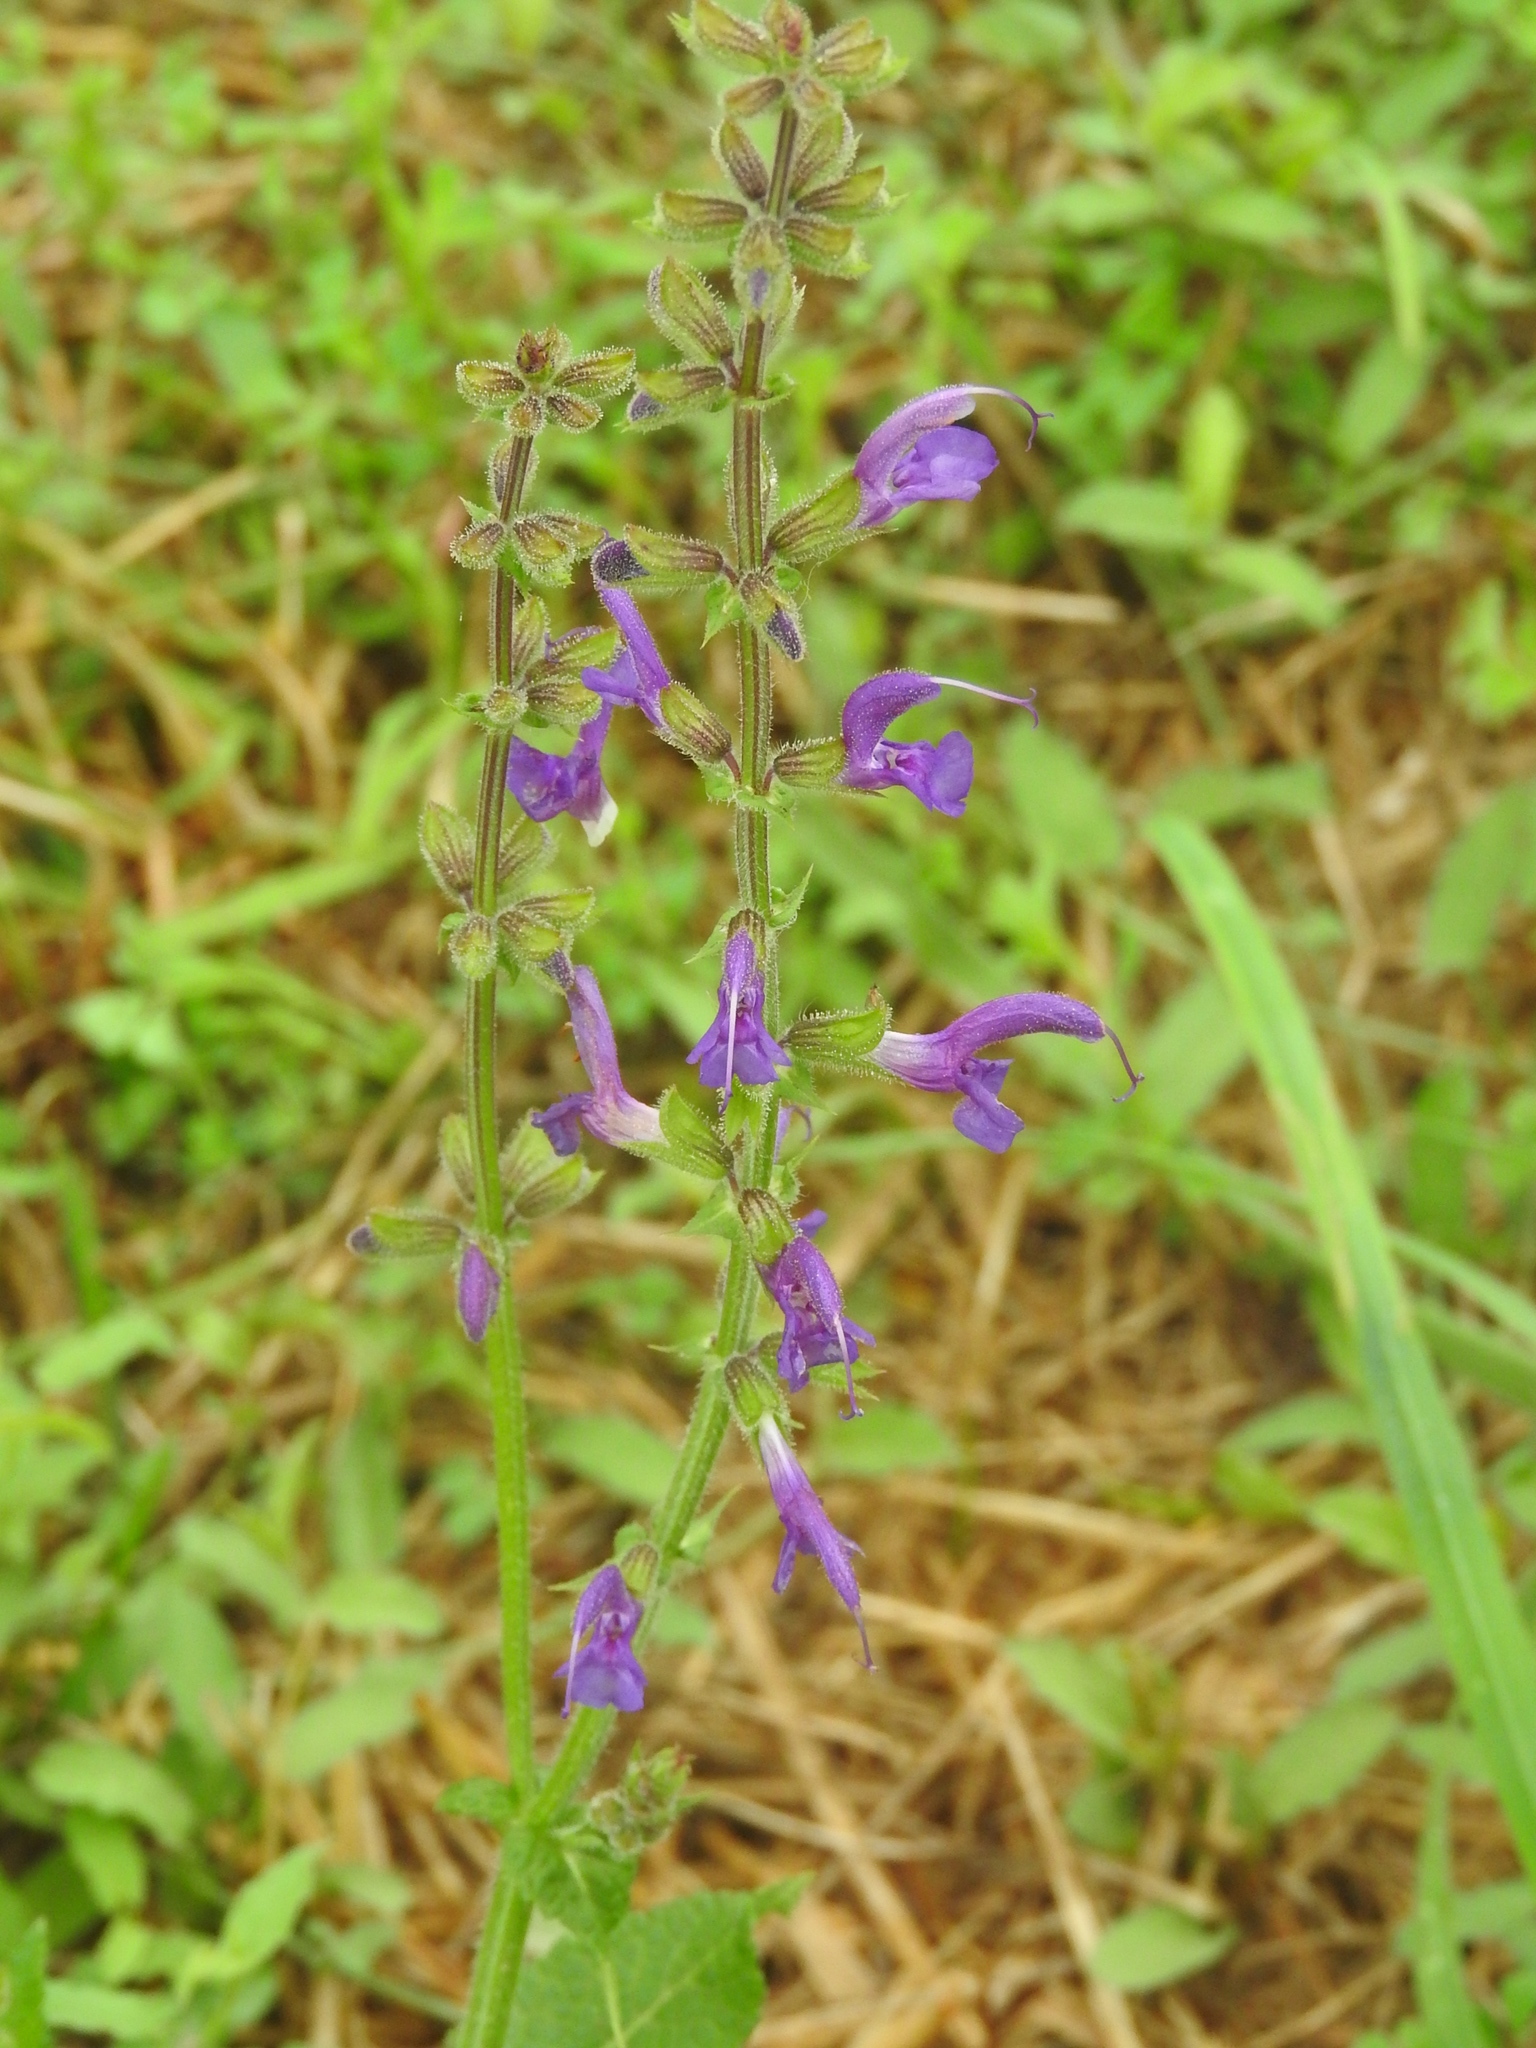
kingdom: Plantae
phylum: Tracheophyta
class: Magnoliopsida
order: Lamiales
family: Lamiaceae
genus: Salvia
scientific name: Salvia pratensis
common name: Meadow sage
